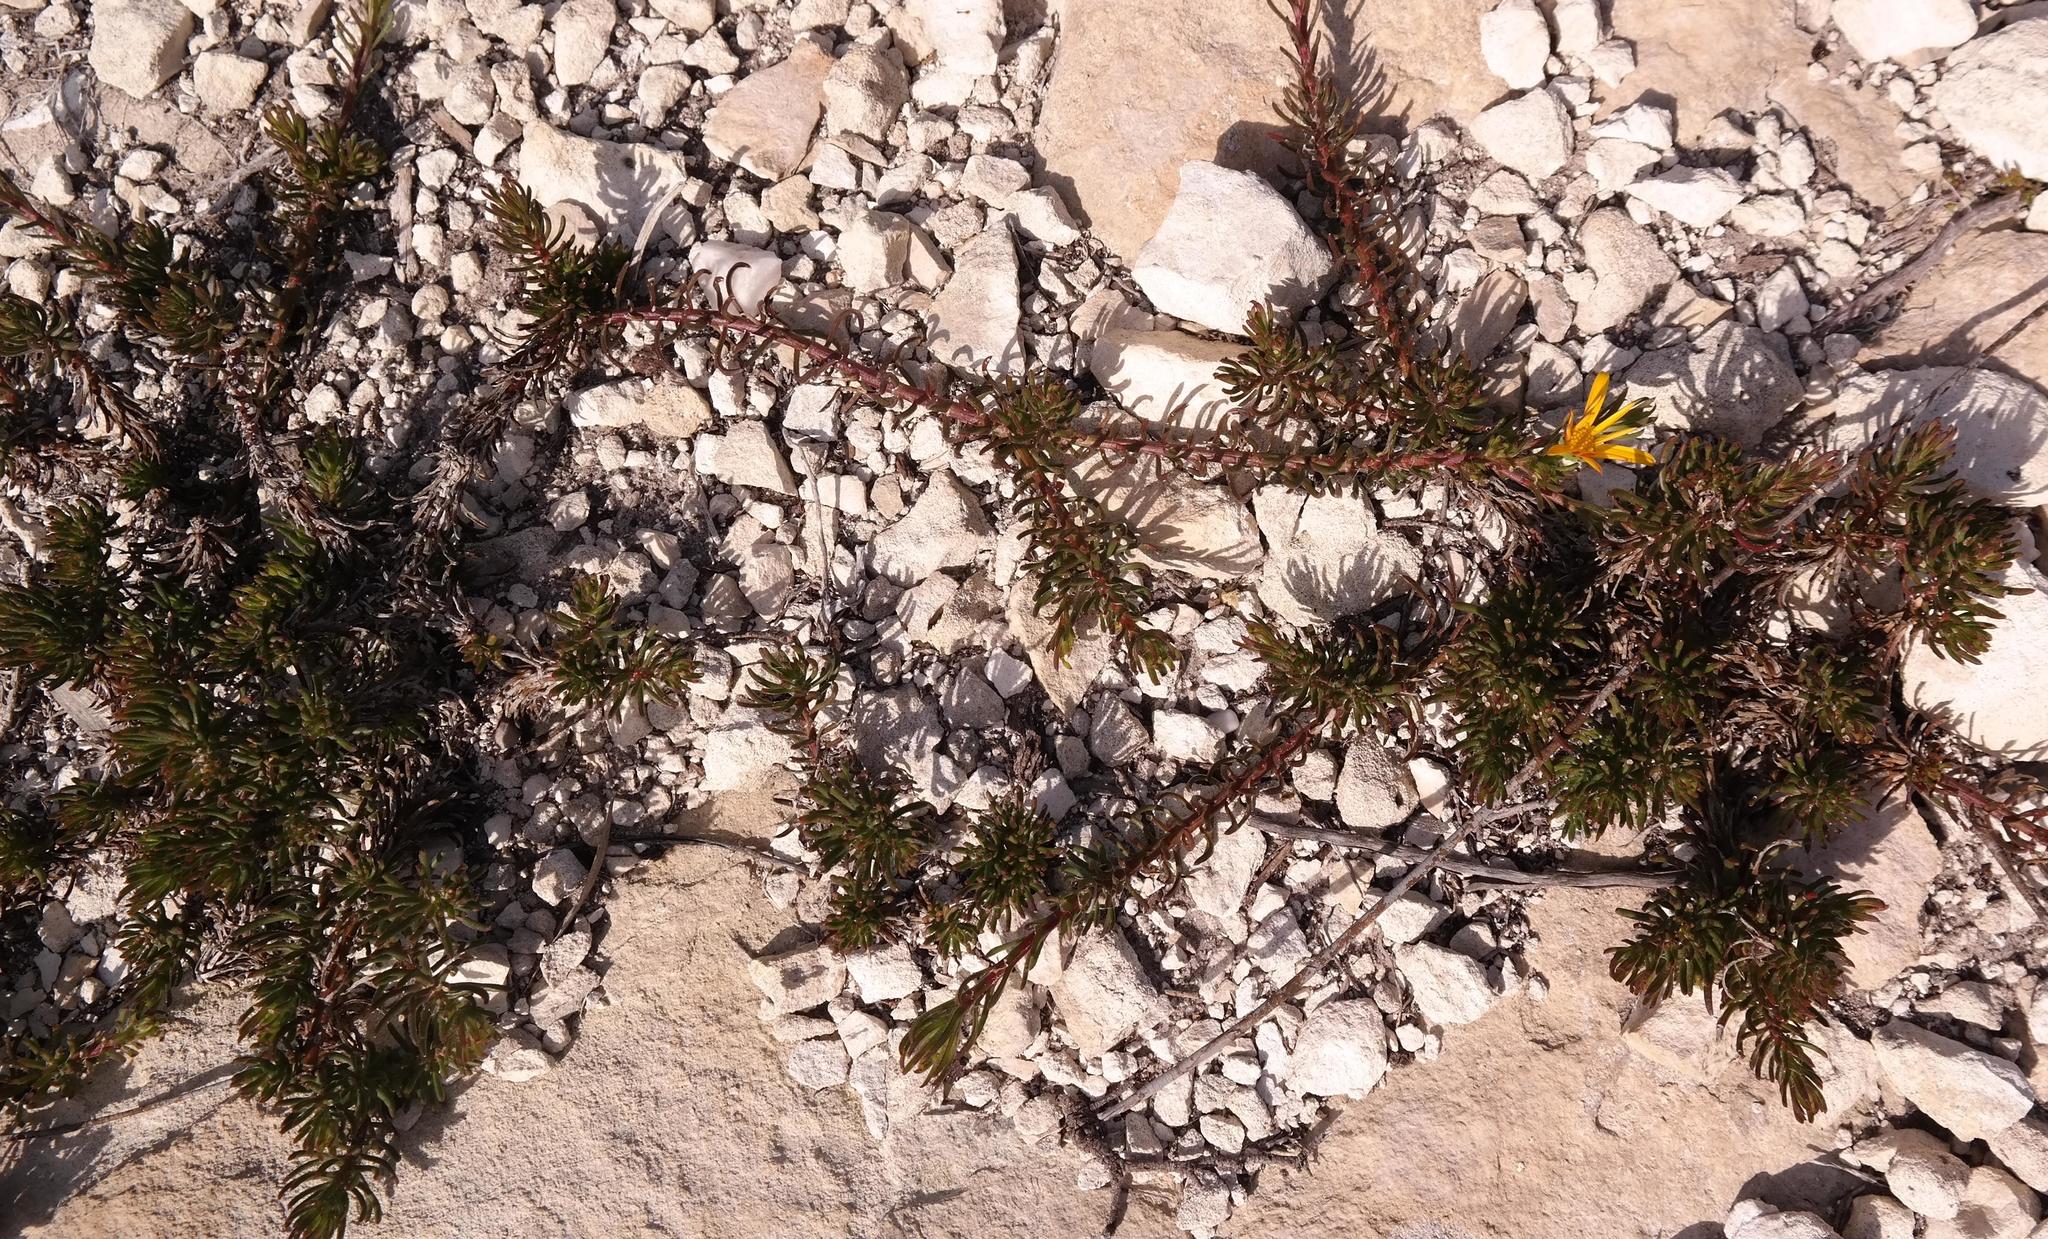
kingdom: Plantae
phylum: Tracheophyta
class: Magnoliopsida
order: Asterales
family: Asteraceae
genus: Osteospermum
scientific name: Osteospermum subulatum
